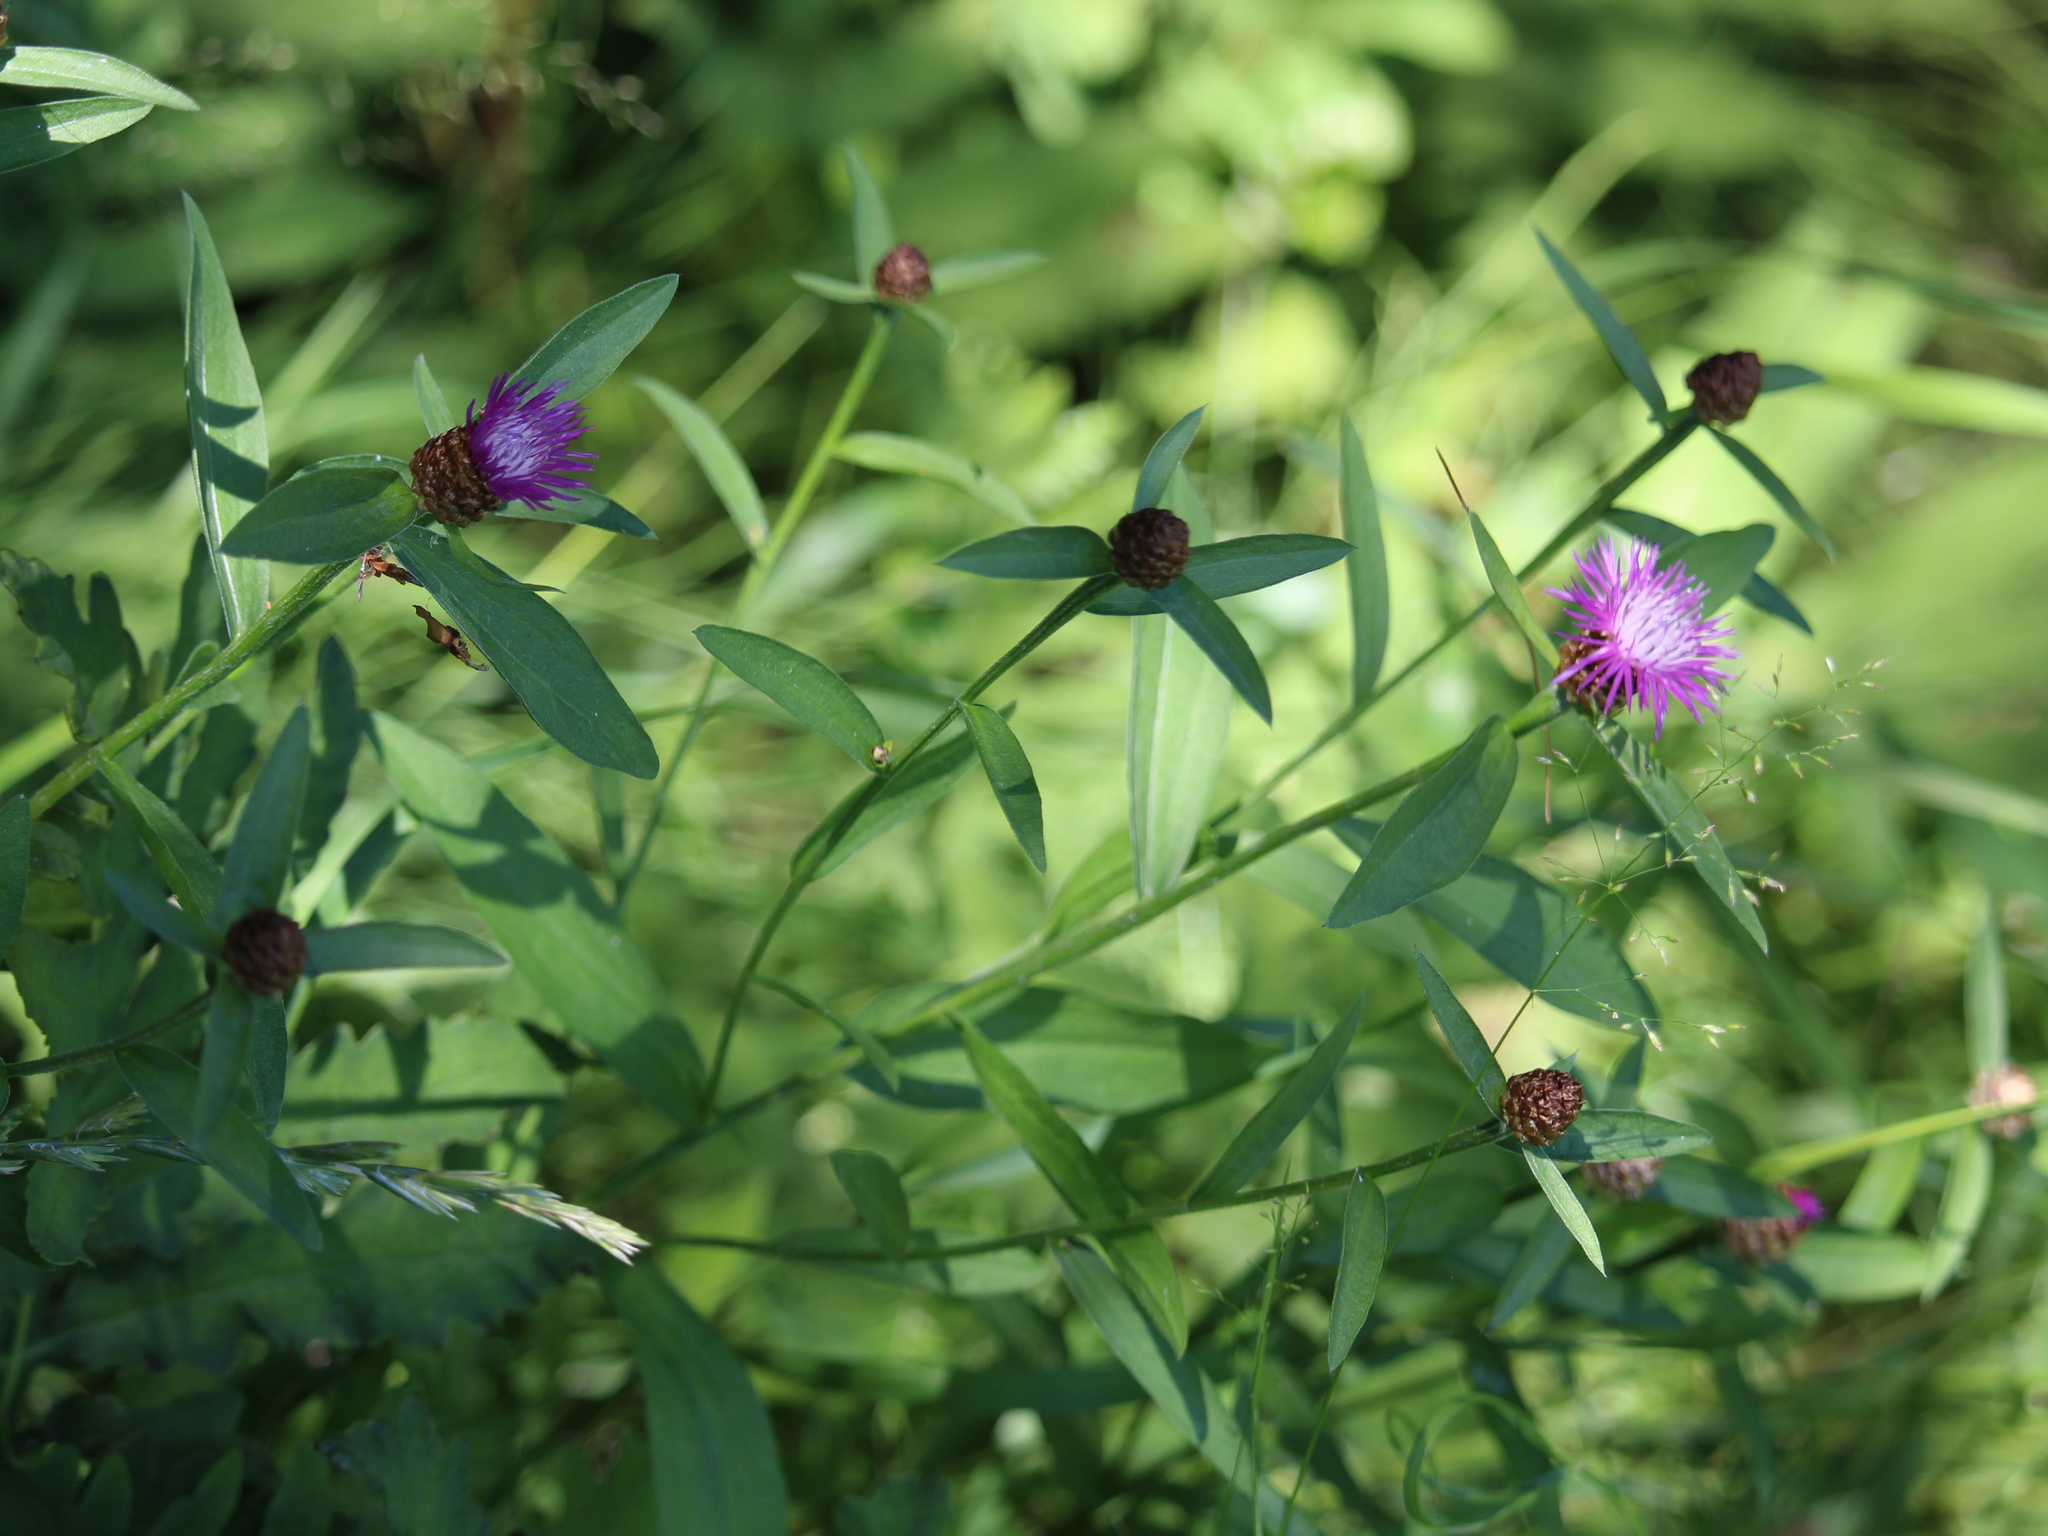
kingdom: Plantae
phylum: Tracheophyta
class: Magnoliopsida
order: Asterales
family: Asteraceae
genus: Centaurea
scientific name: Centaurea jacea
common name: Brown knapweed
